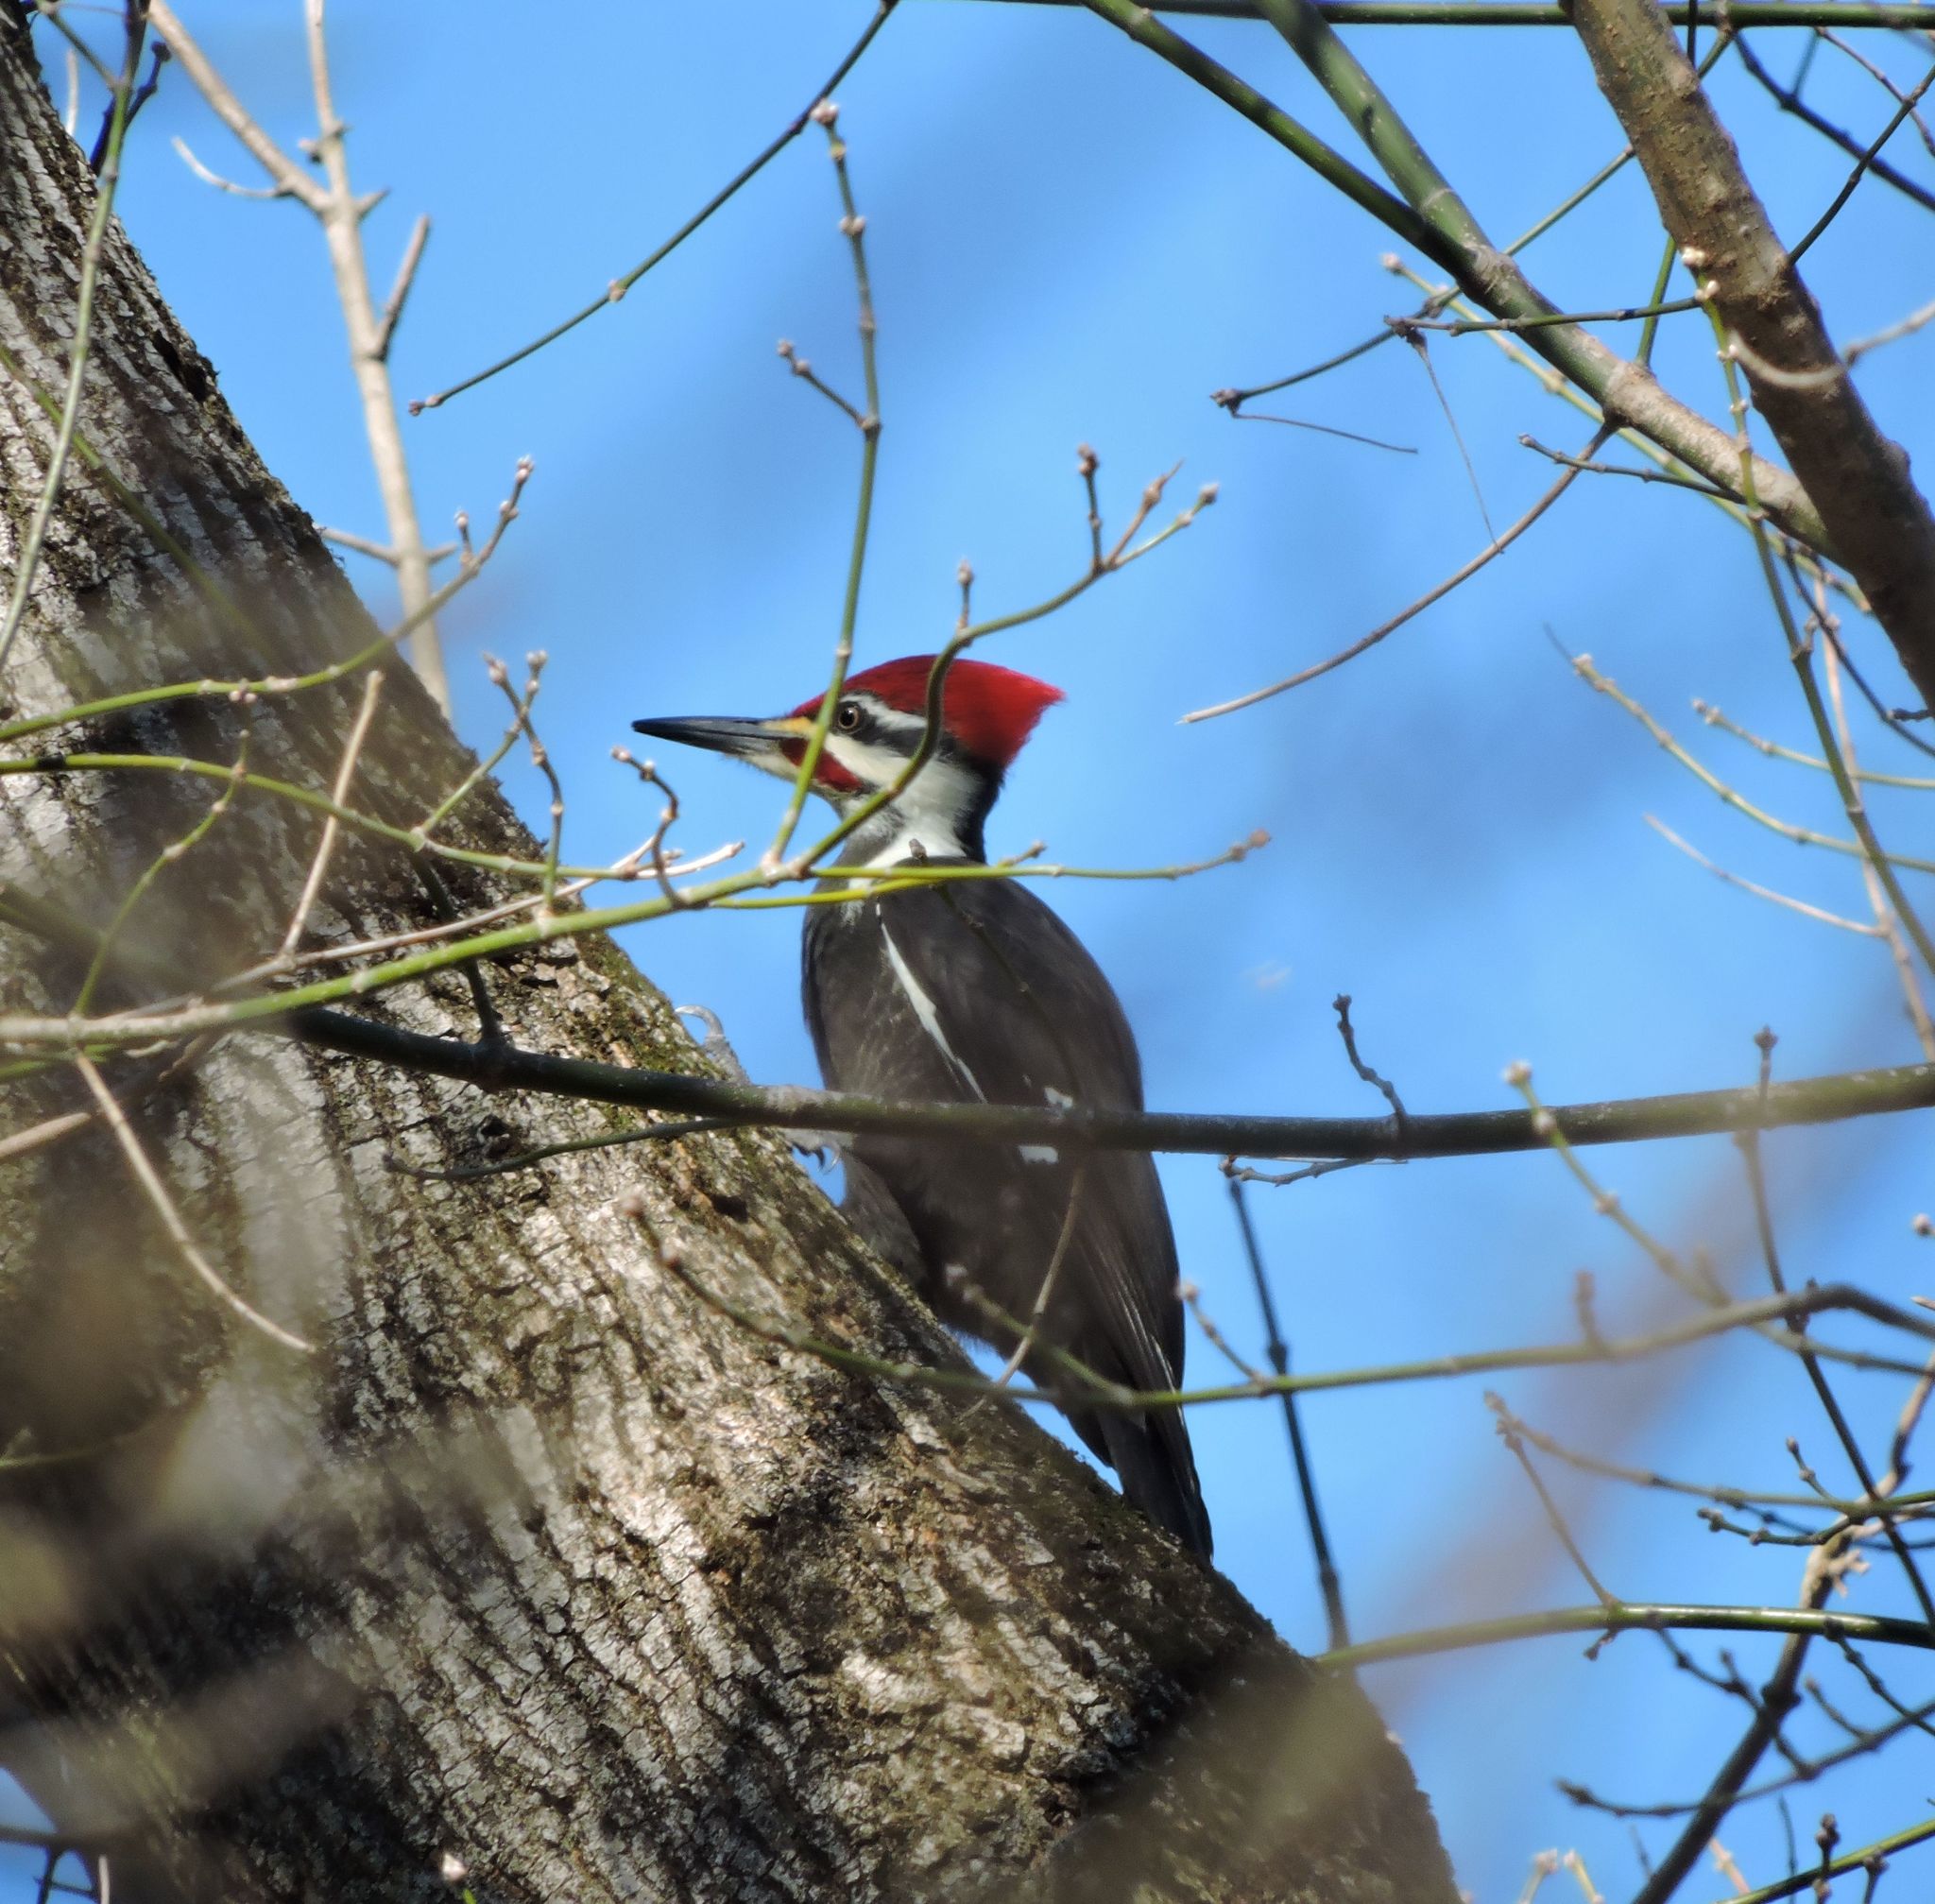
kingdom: Animalia
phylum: Chordata
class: Aves
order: Piciformes
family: Picidae
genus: Dryocopus
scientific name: Dryocopus pileatus
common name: Pileated woodpecker
